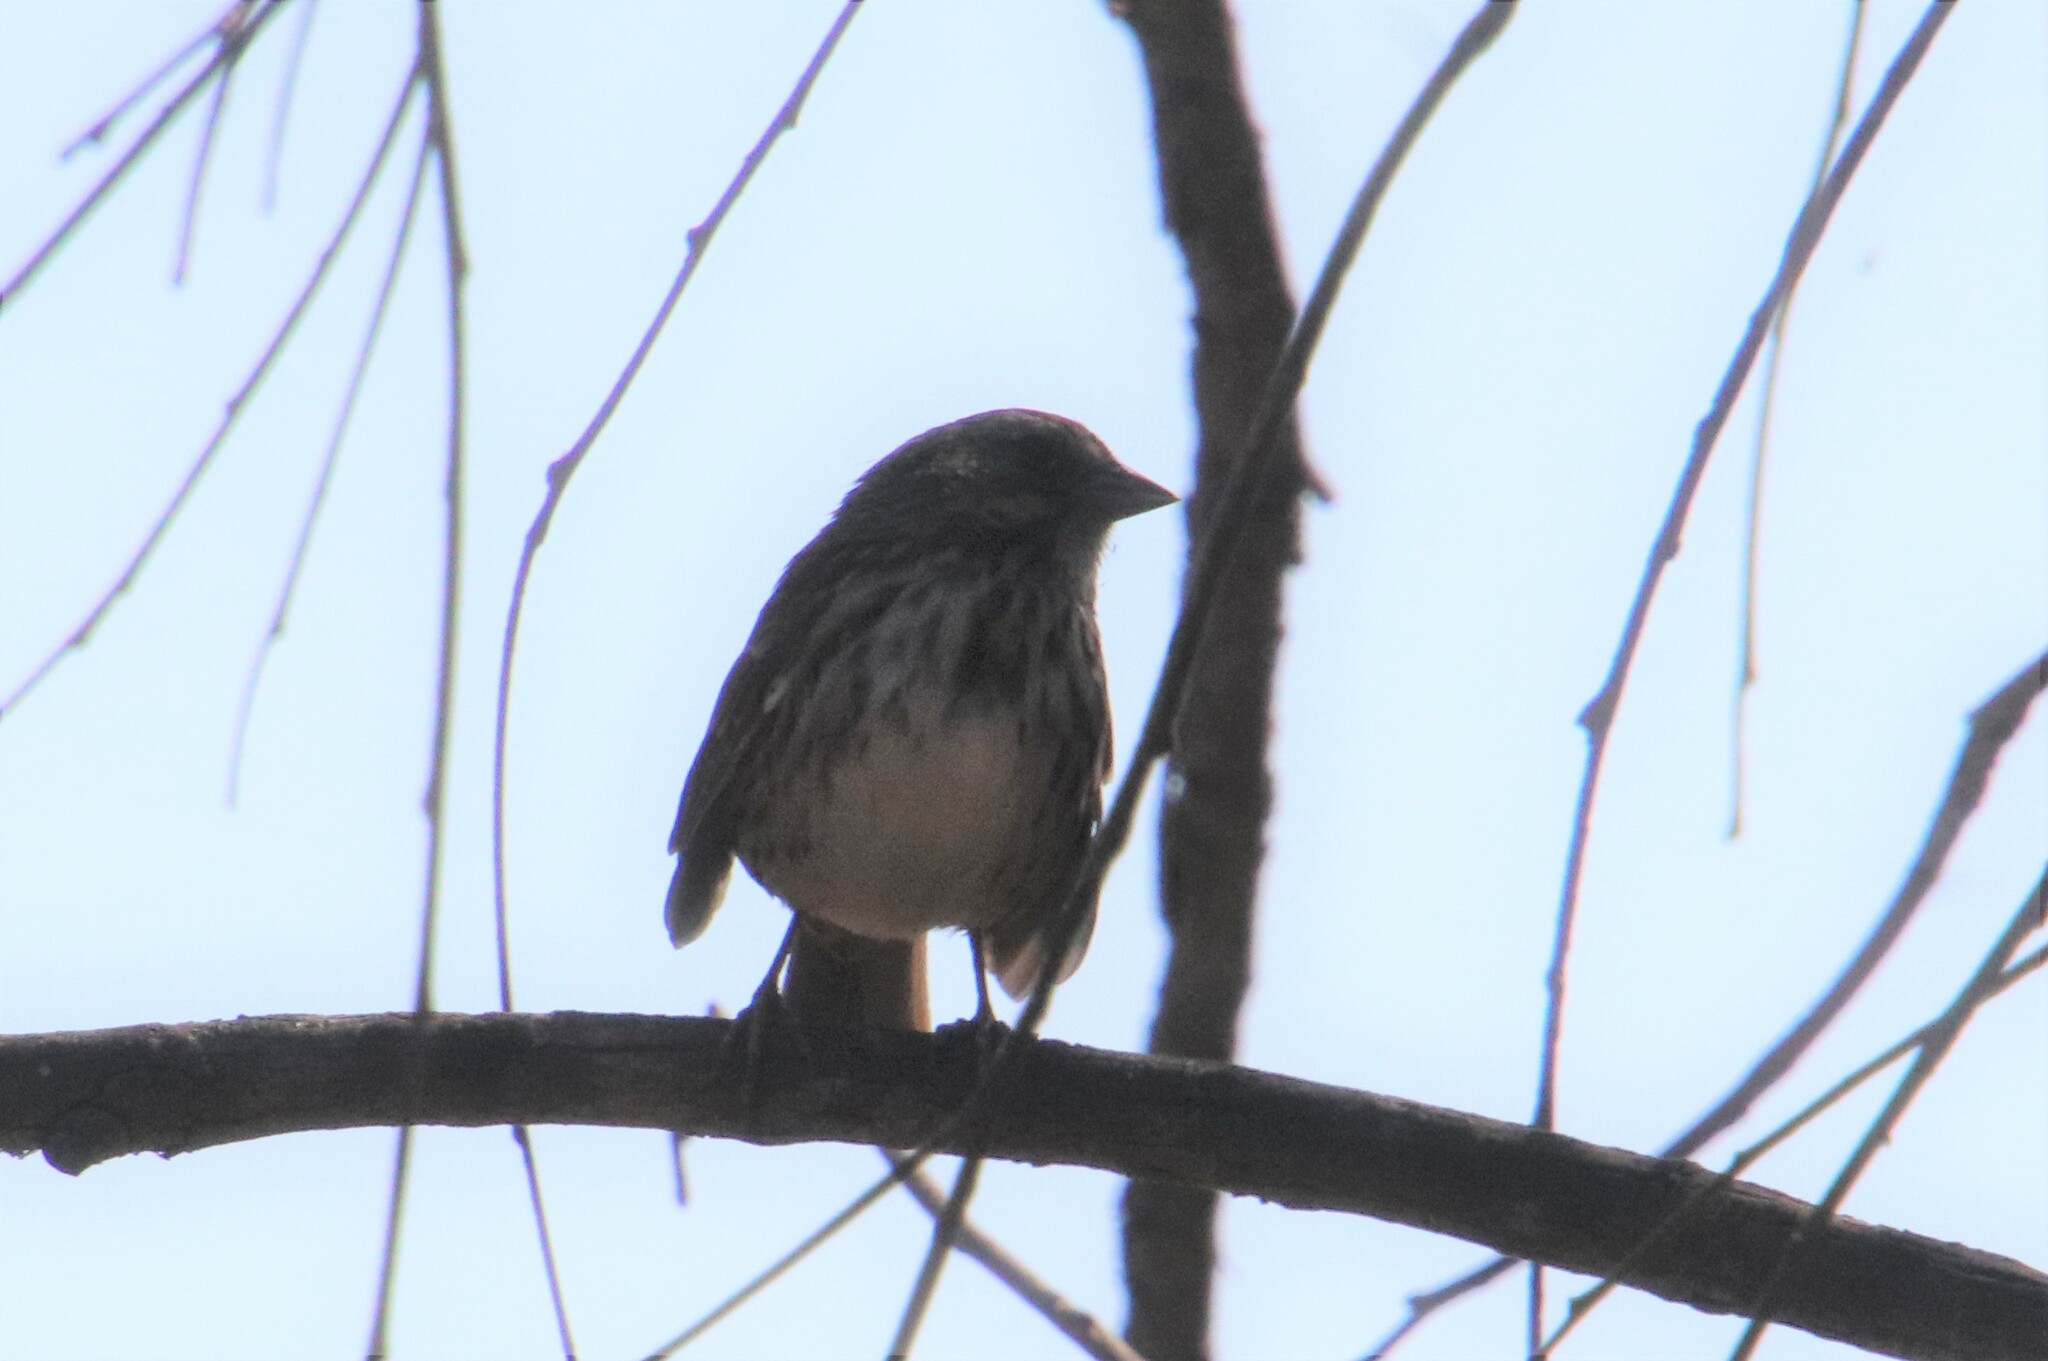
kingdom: Animalia
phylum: Chordata
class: Aves
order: Passeriformes
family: Passerellidae
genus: Melospiza
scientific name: Melospiza melodia
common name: Song sparrow
